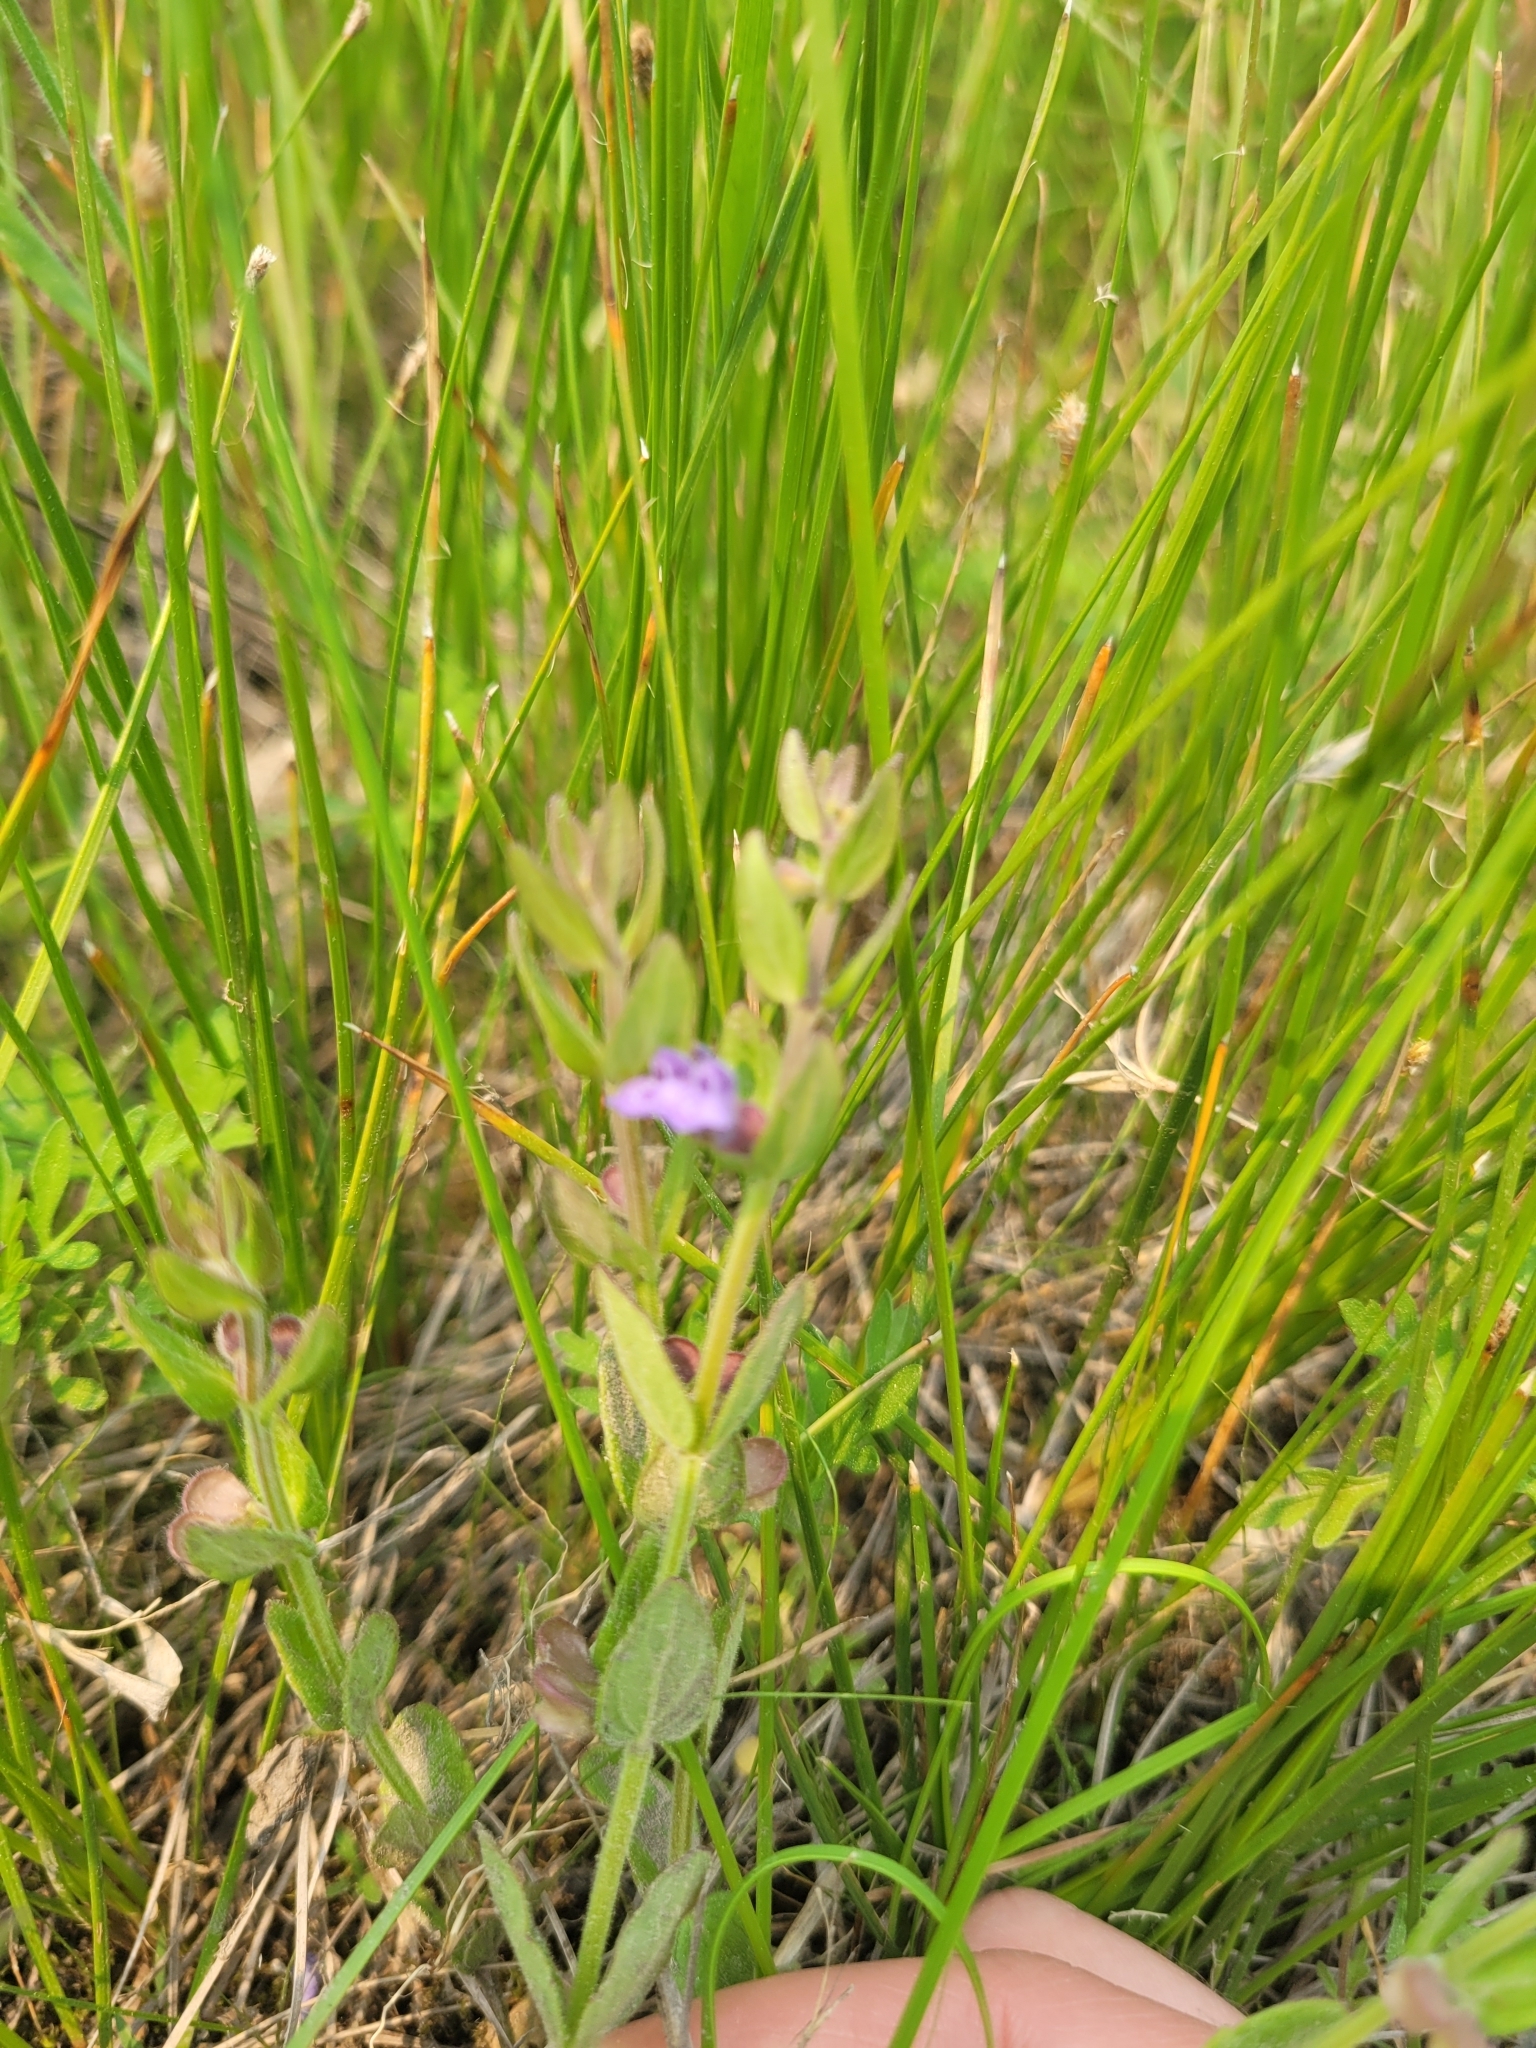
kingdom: Plantae
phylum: Tracheophyta
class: Magnoliopsida
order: Lamiales
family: Lamiaceae
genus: Scutellaria
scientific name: Scutellaria parvula
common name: Little scullcap
